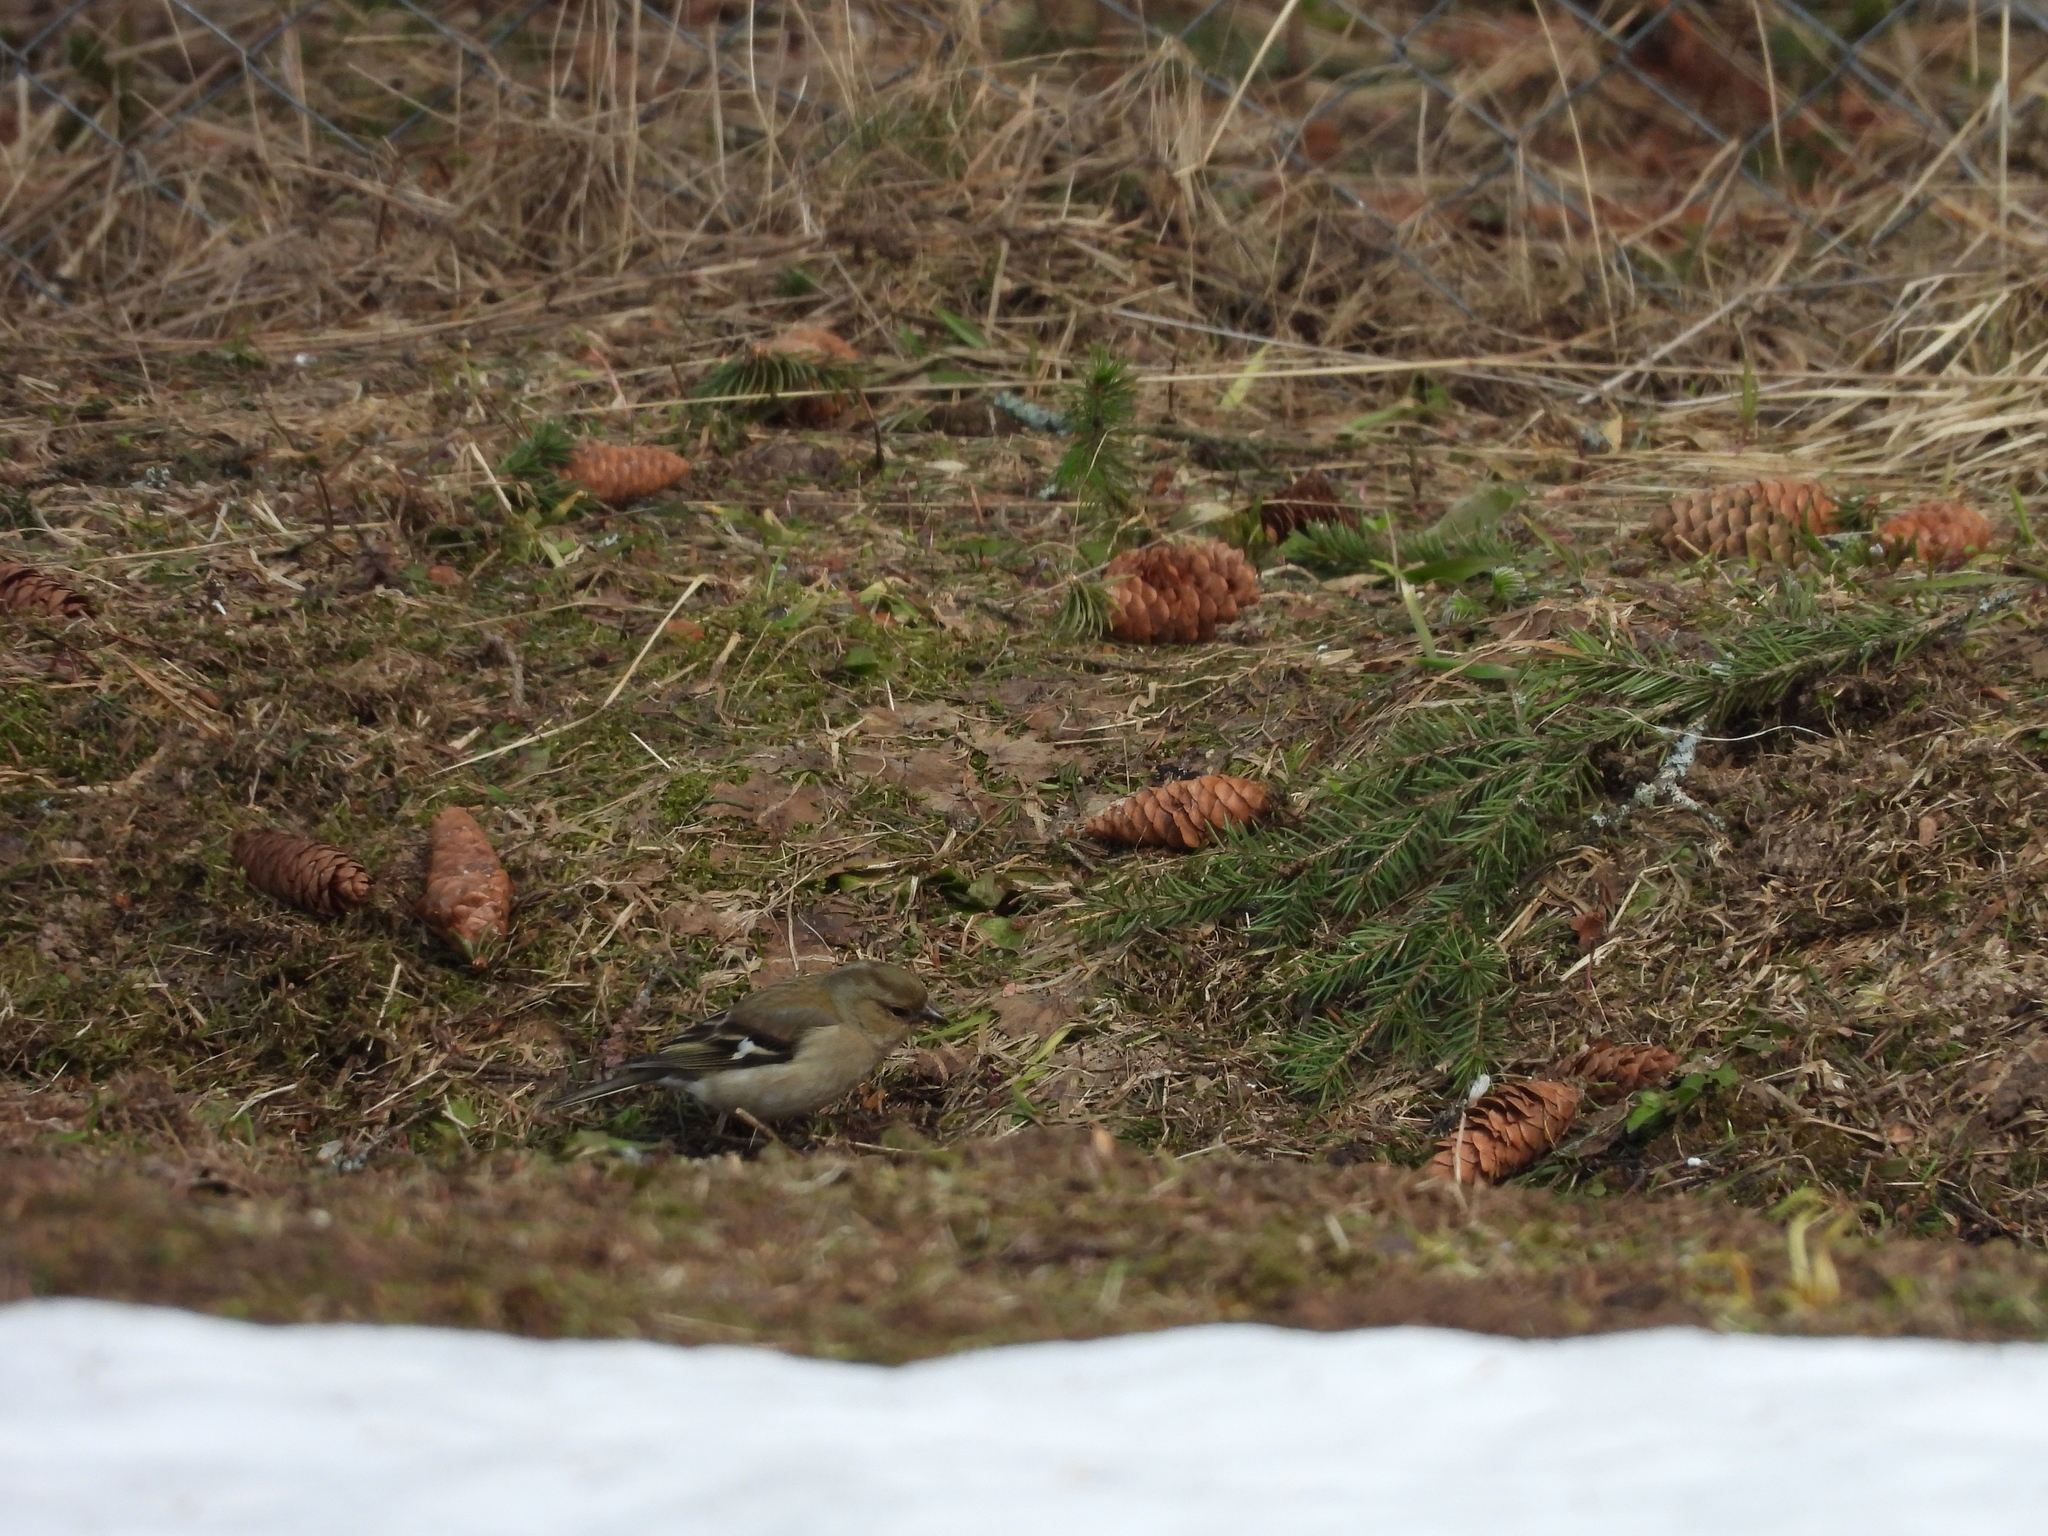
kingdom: Animalia
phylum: Chordata
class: Aves
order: Passeriformes
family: Fringillidae
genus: Fringilla
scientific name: Fringilla coelebs
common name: Common chaffinch
